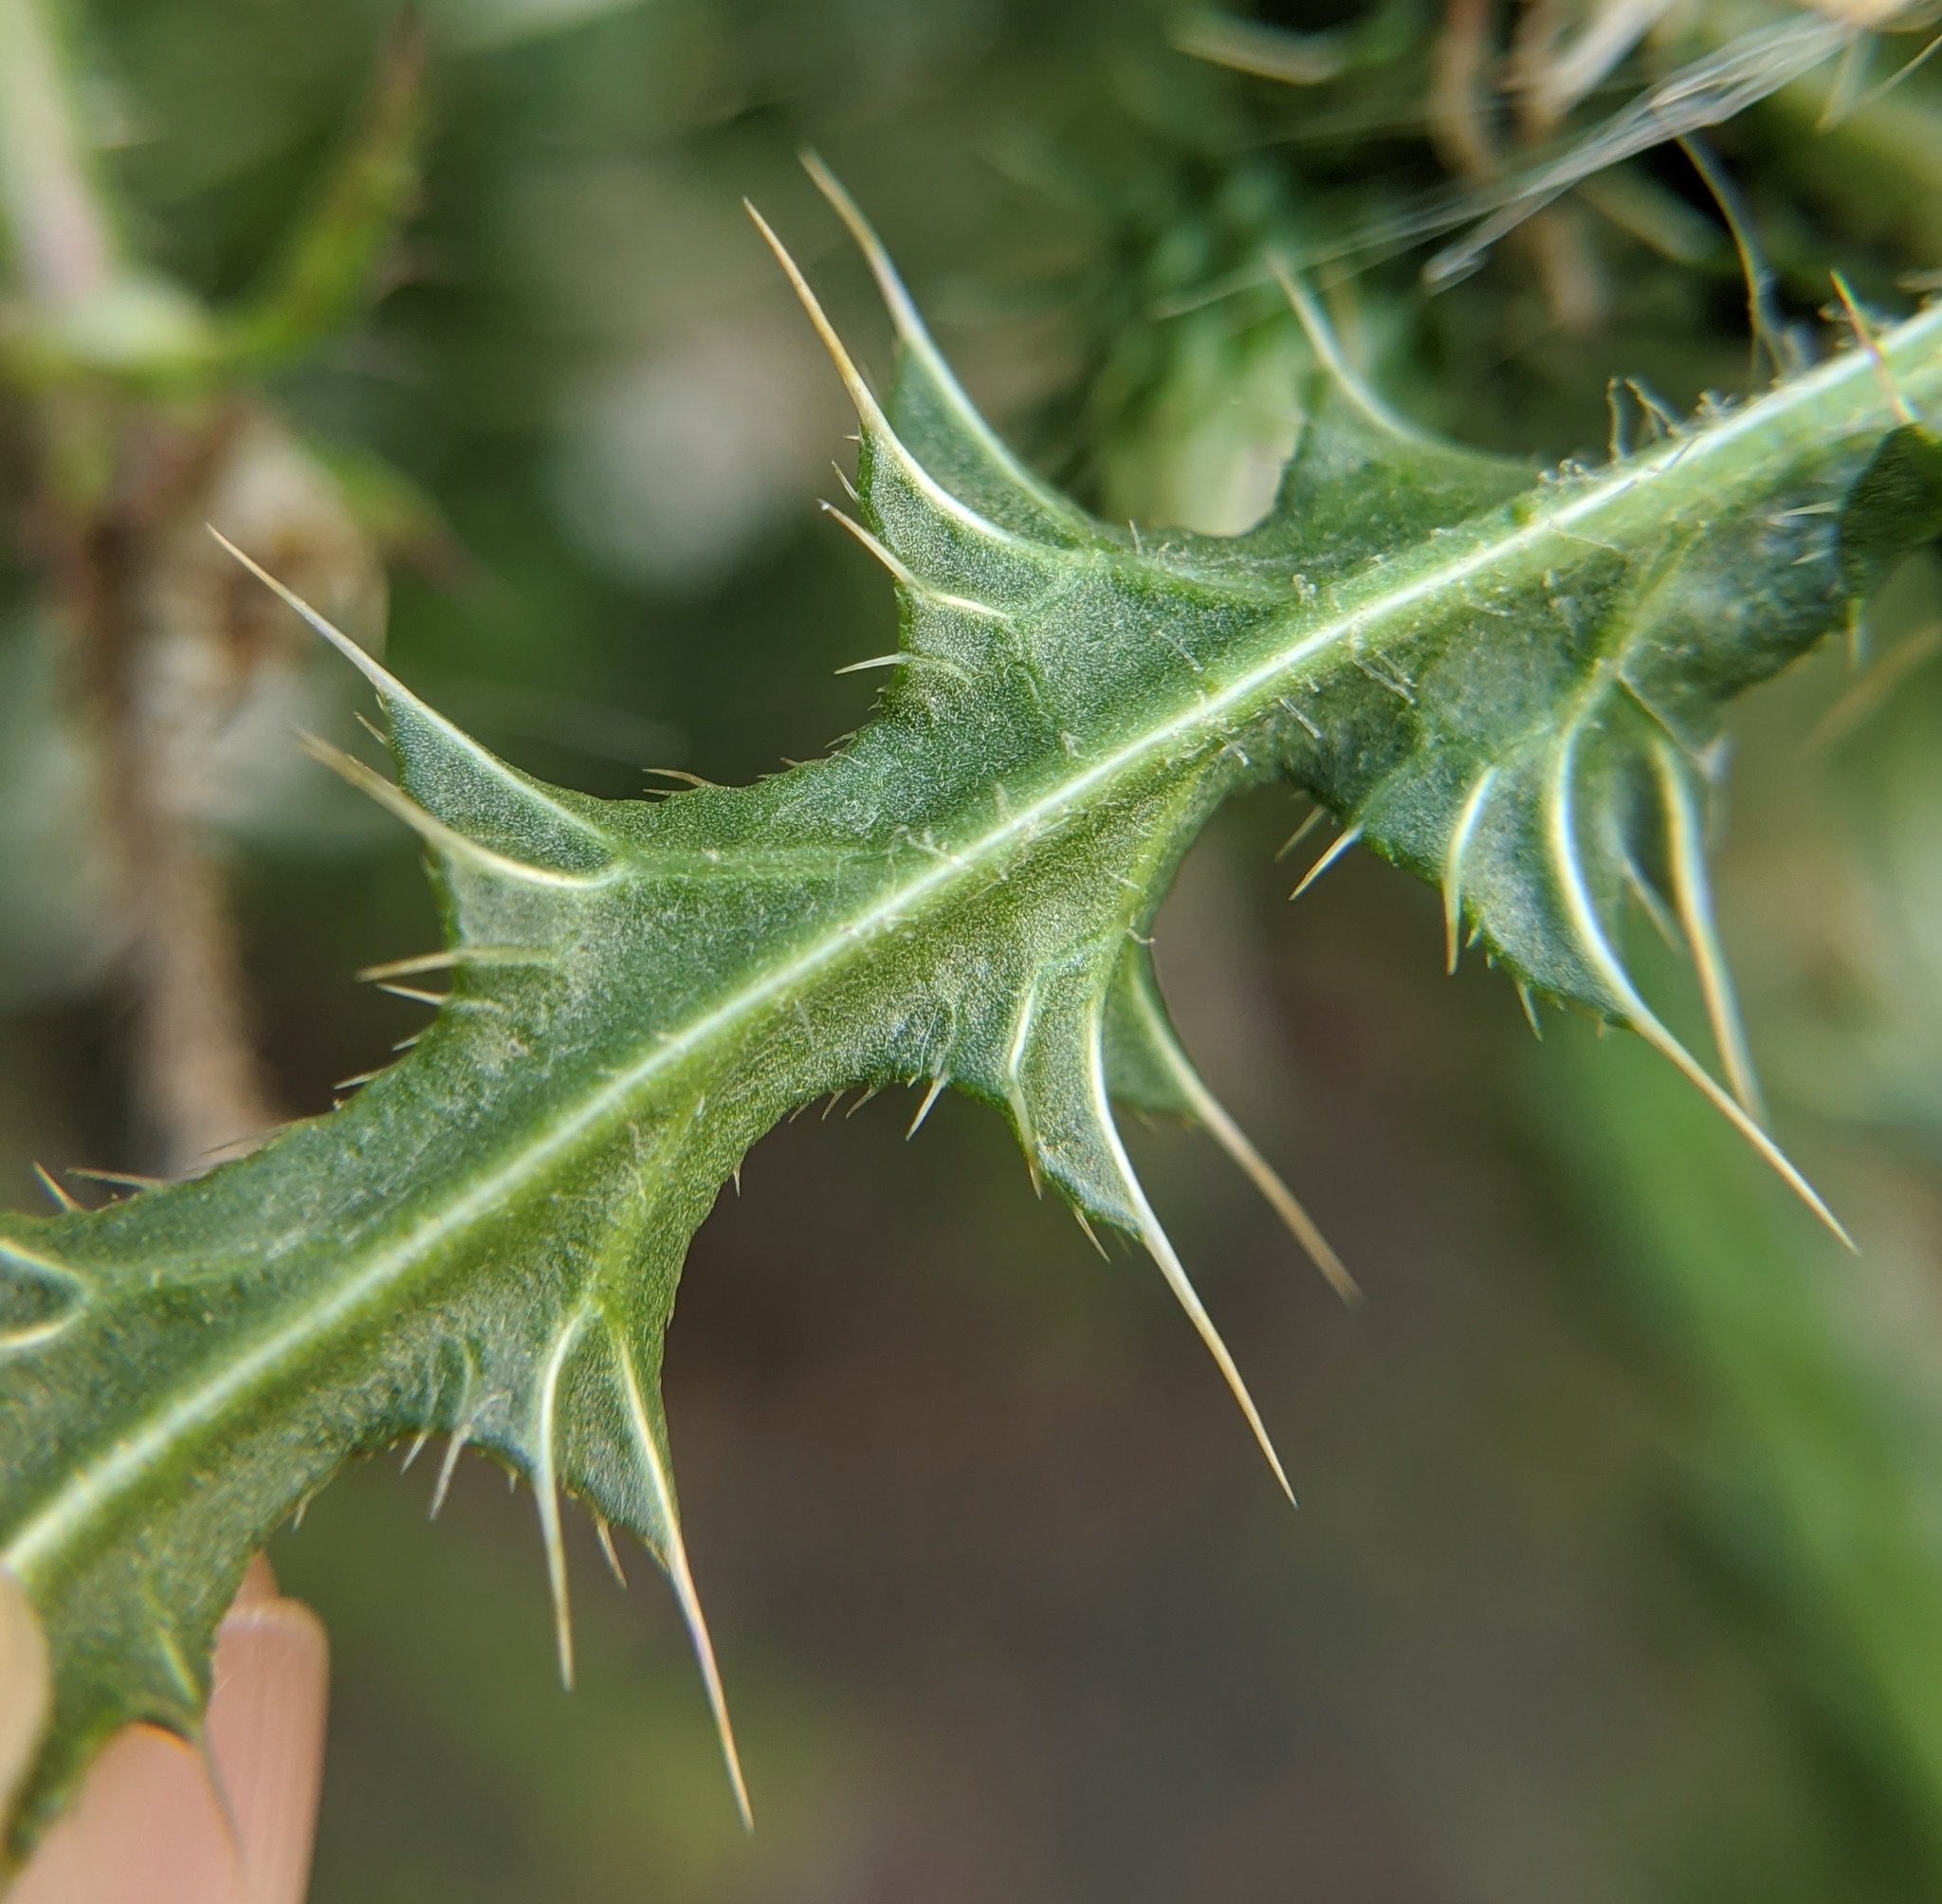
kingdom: Plantae
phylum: Tracheophyta
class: Magnoliopsida
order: Asterales
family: Asteraceae
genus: Carduus
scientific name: Carduus acanthoides
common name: Plumeless thistle
